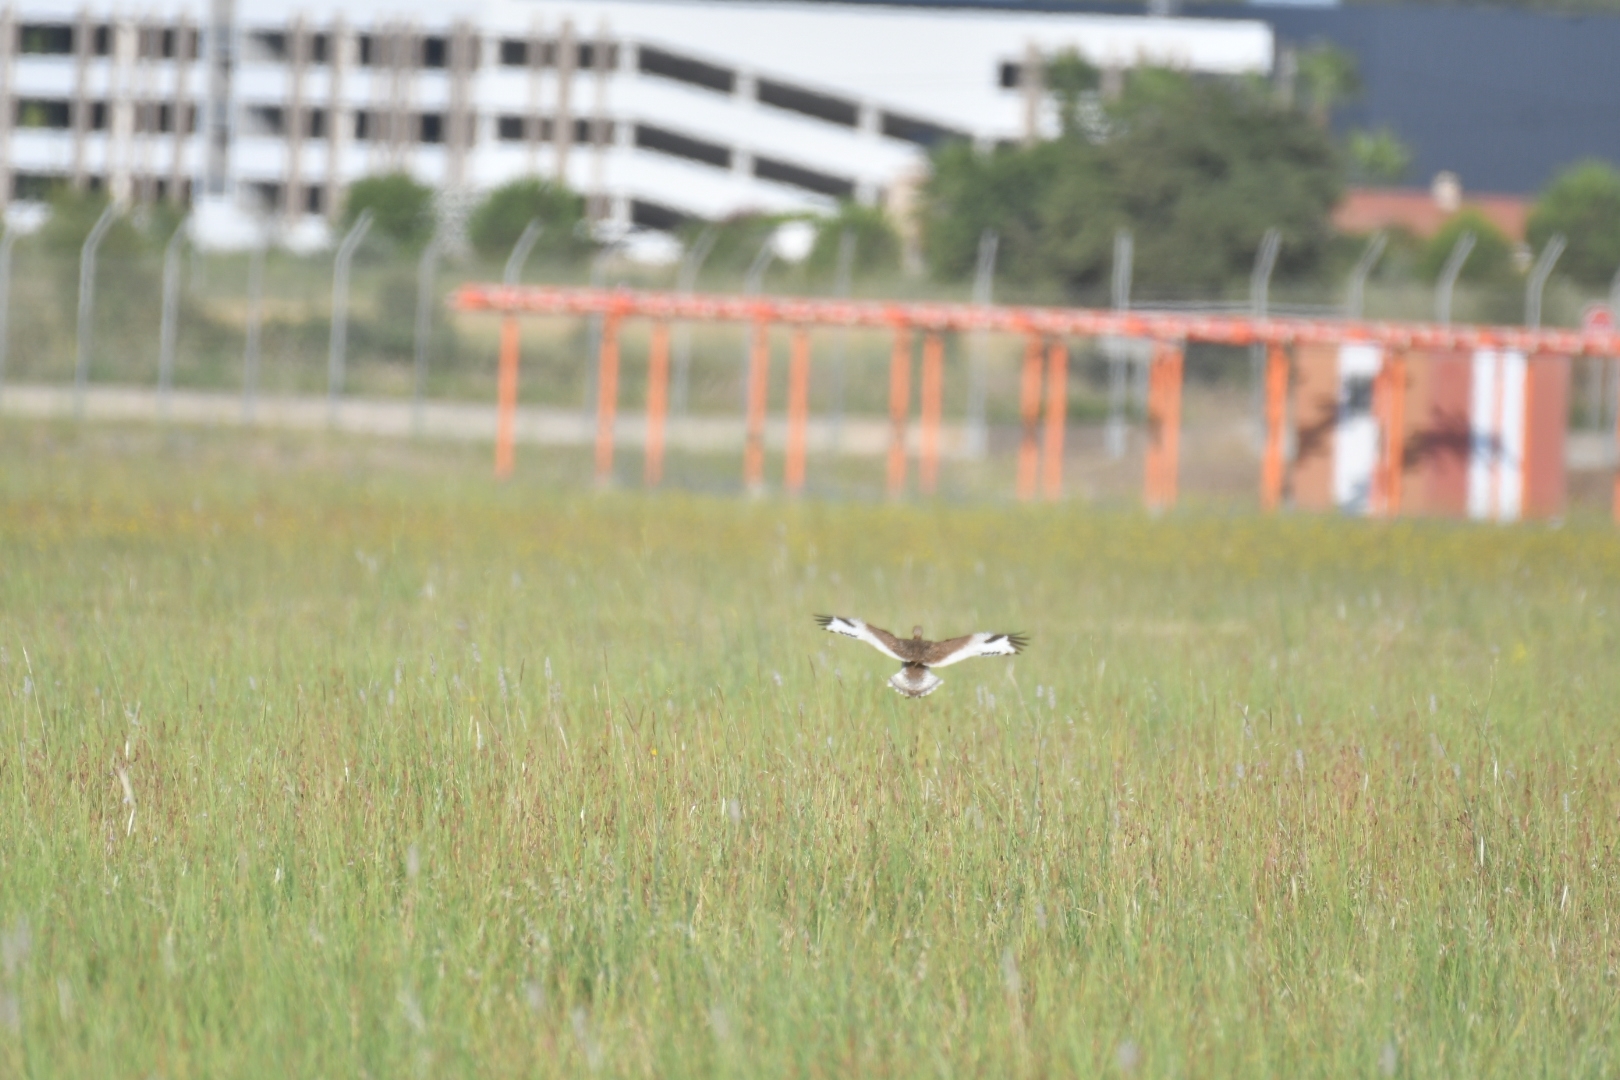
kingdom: Animalia
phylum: Chordata
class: Aves
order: Otidiformes
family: Otididae
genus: Tetrax
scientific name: Tetrax tetrax
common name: Little bustard
